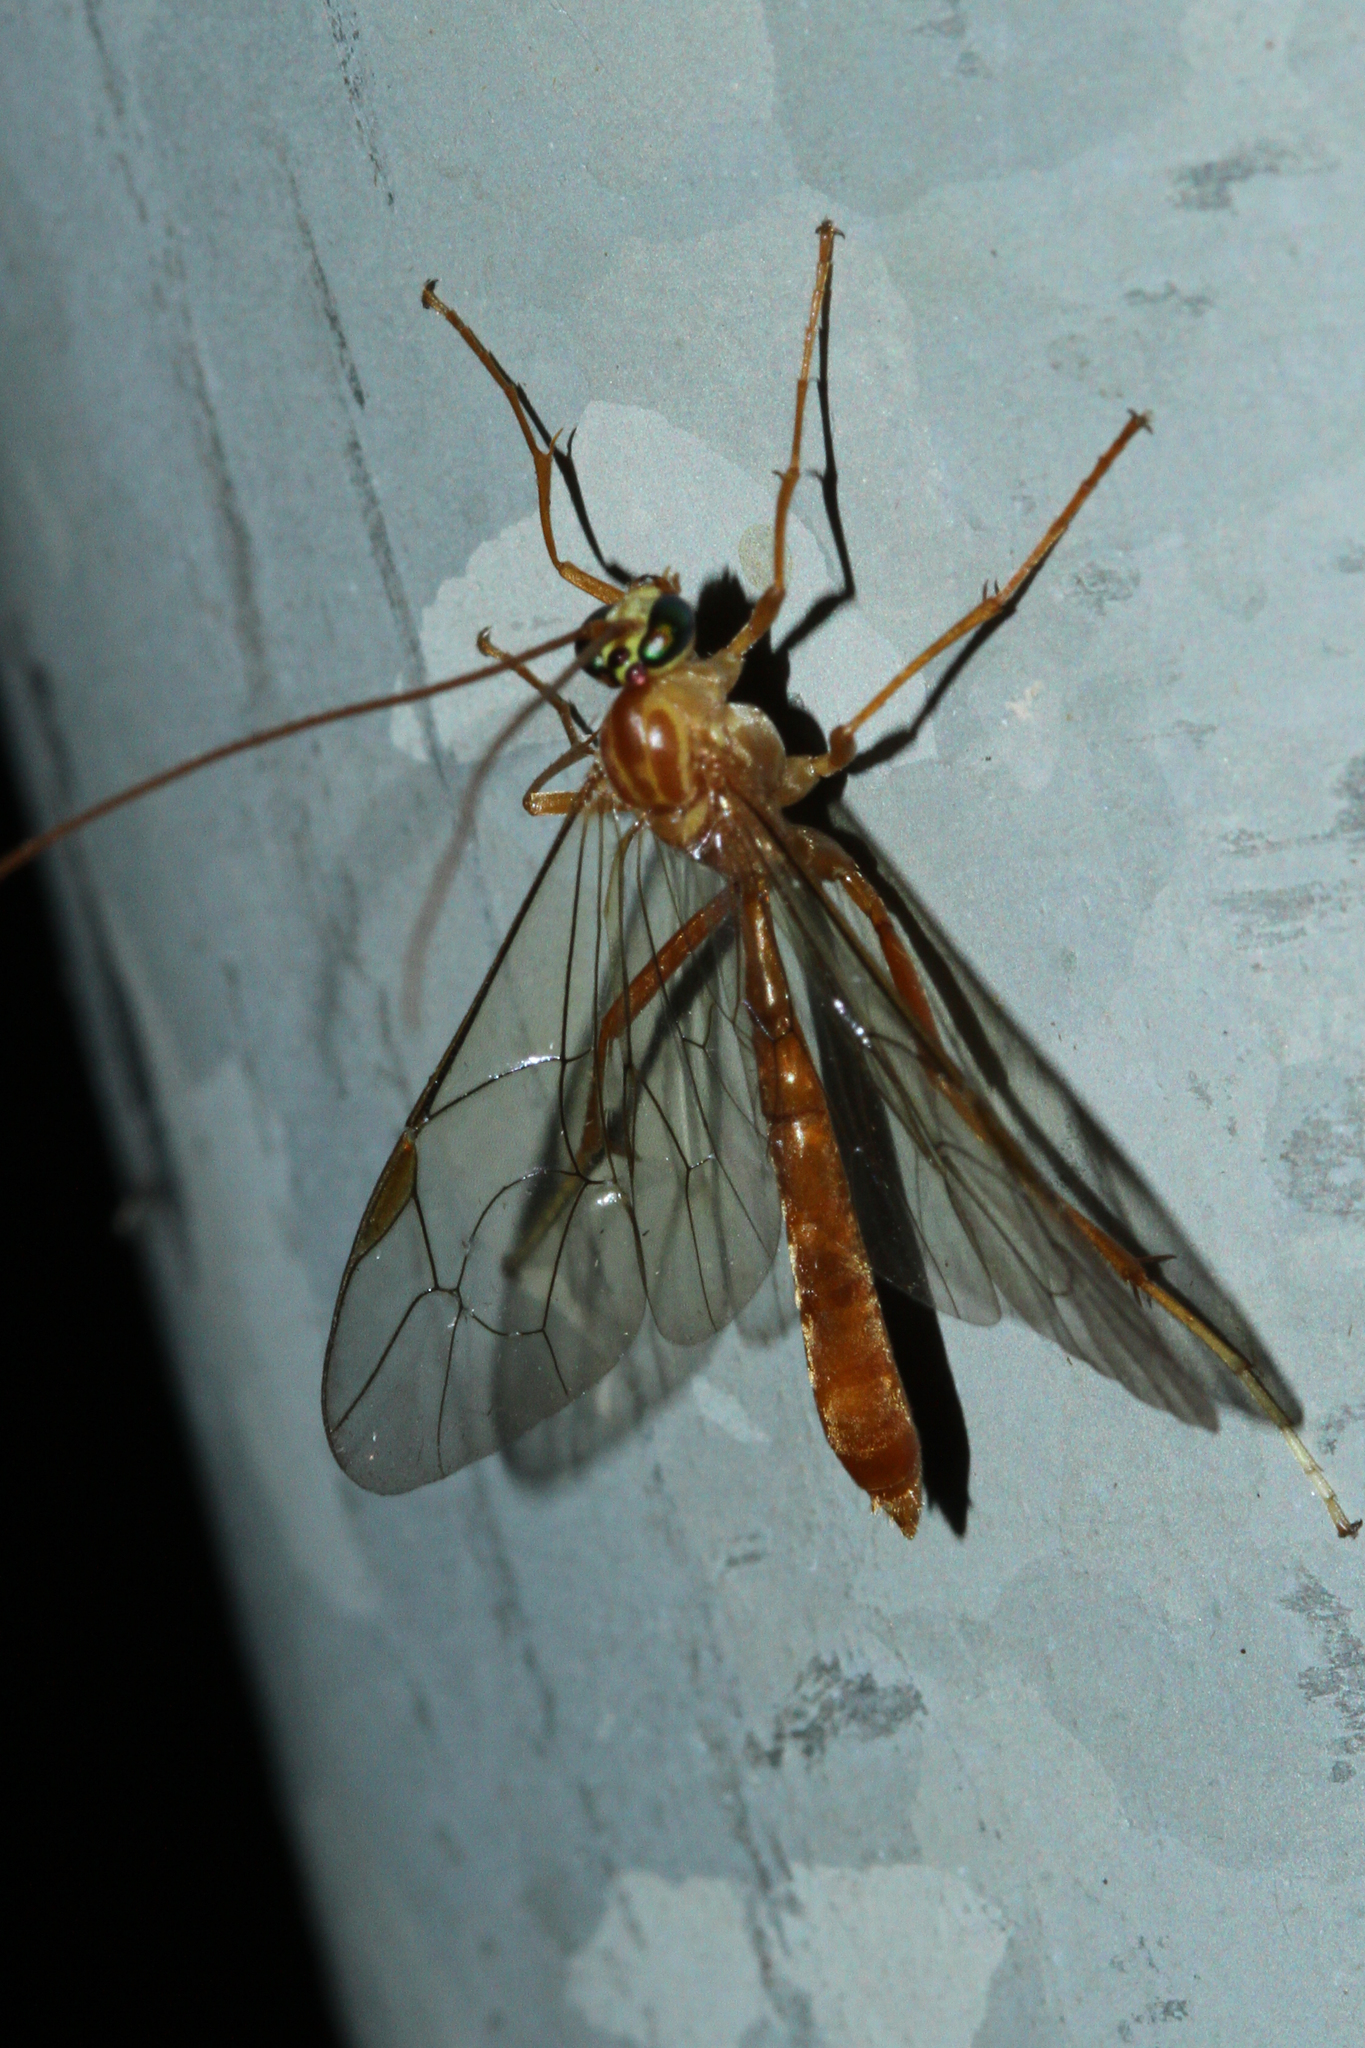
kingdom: Animalia
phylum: Arthropoda
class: Insecta
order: Hymenoptera
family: Ichneumonidae
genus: Netelia
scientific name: Netelia
